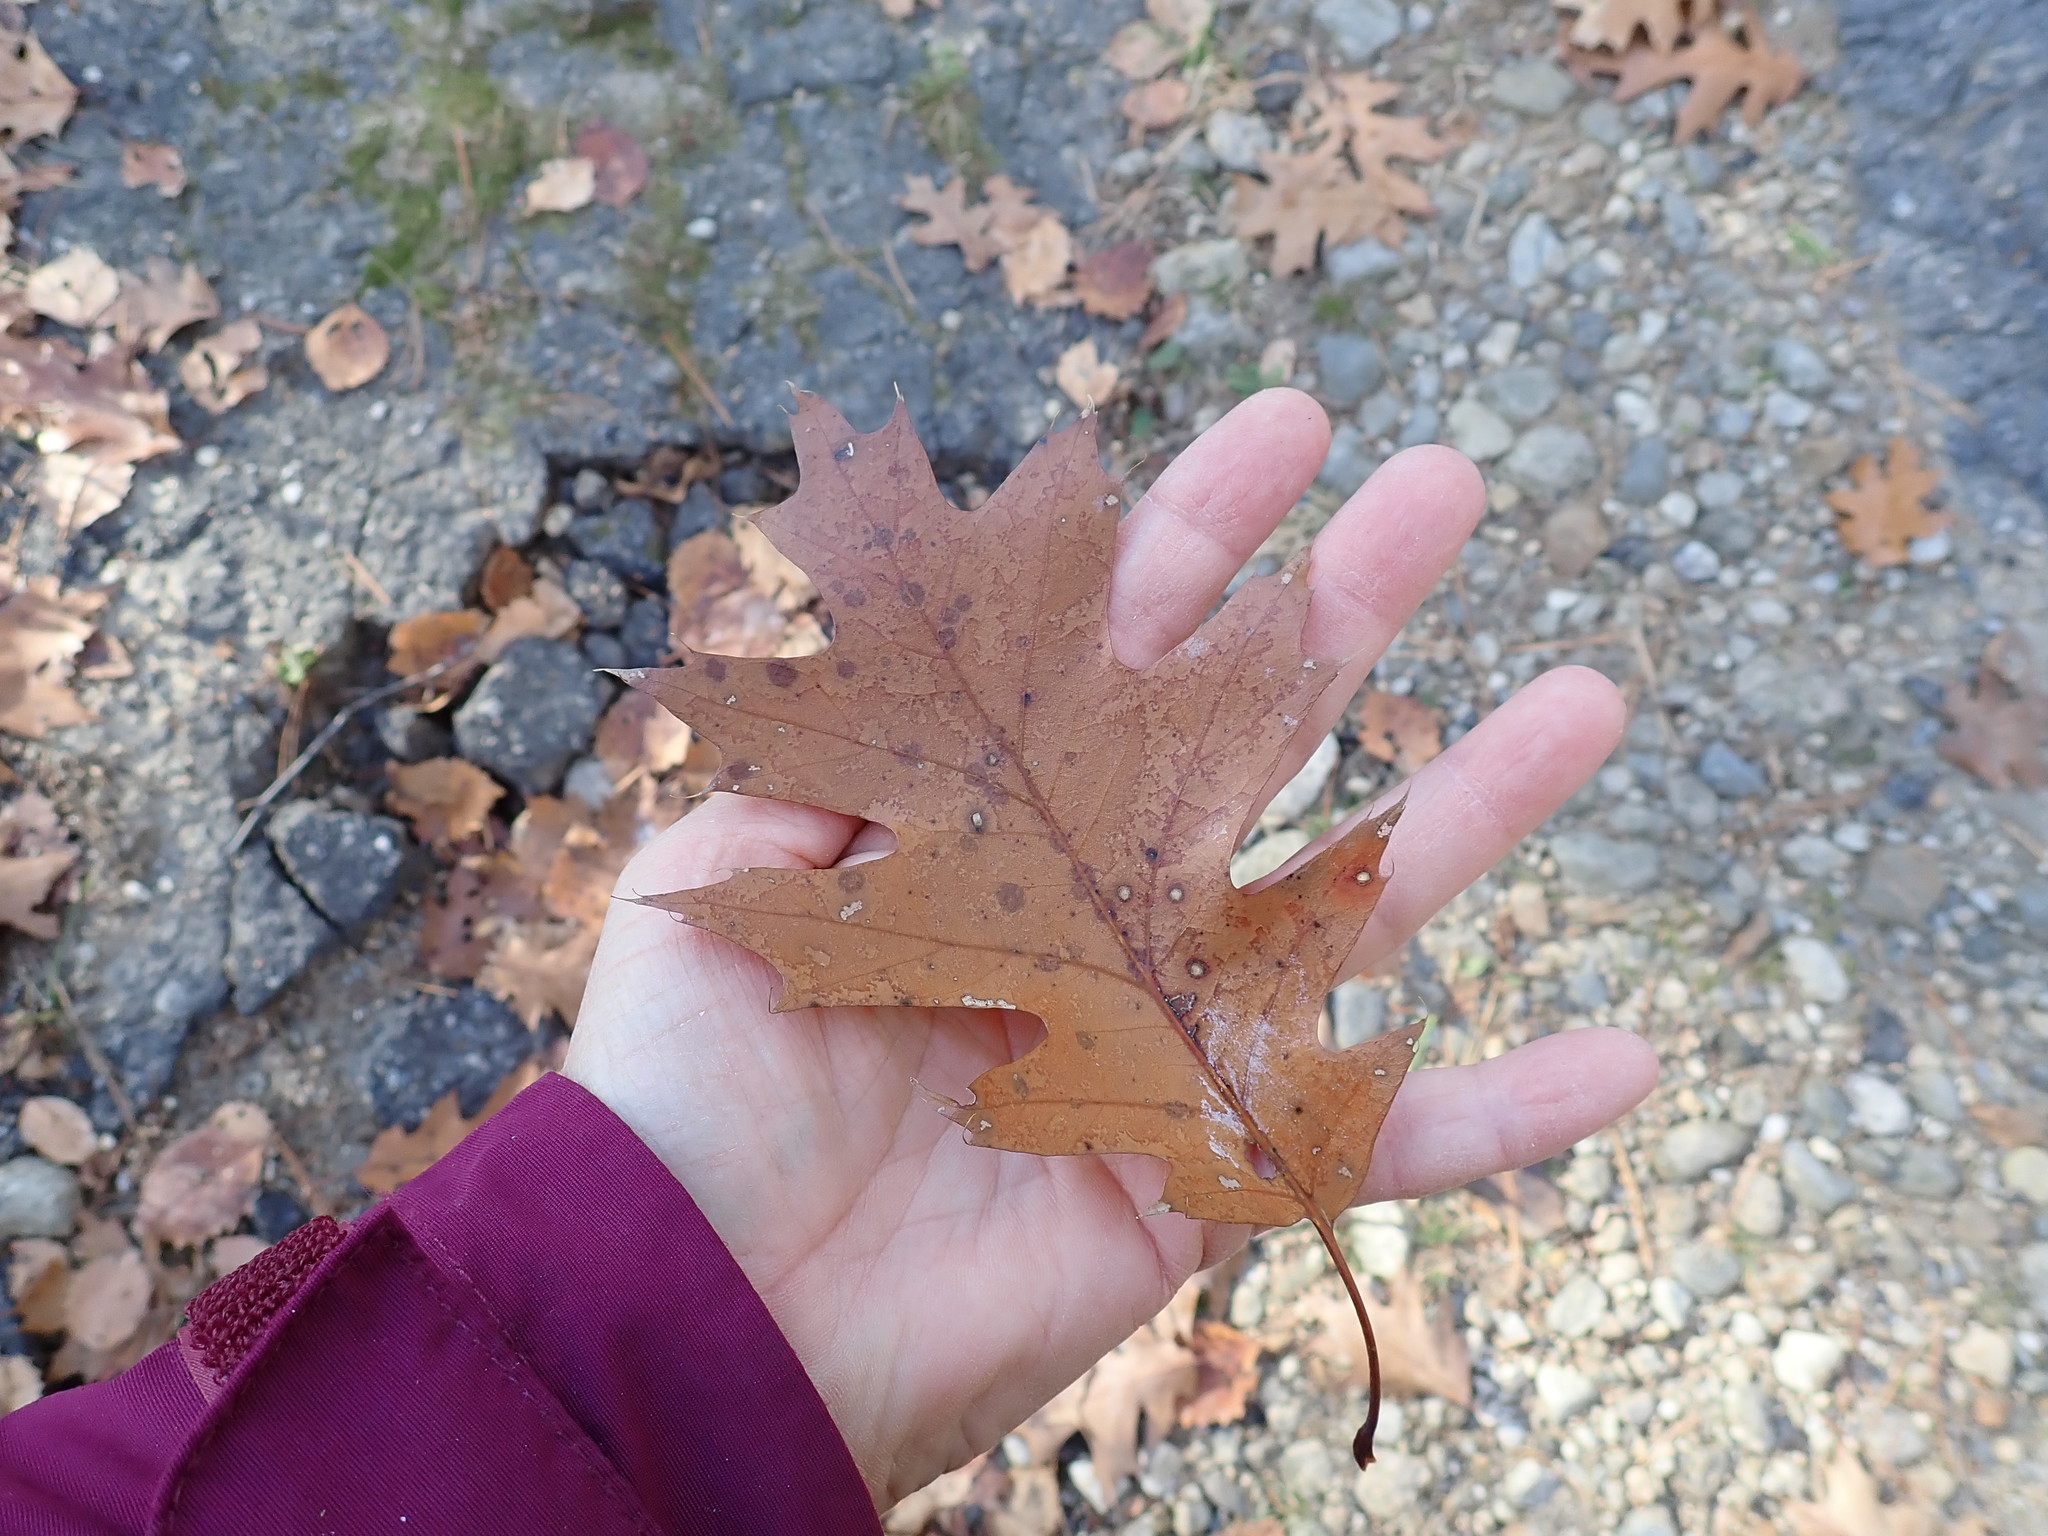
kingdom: Plantae
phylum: Tracheophyta
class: Magnoliopsida
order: Fagales
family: Fagaceae
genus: Quercus
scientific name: Quercus rubra
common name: Red oak
